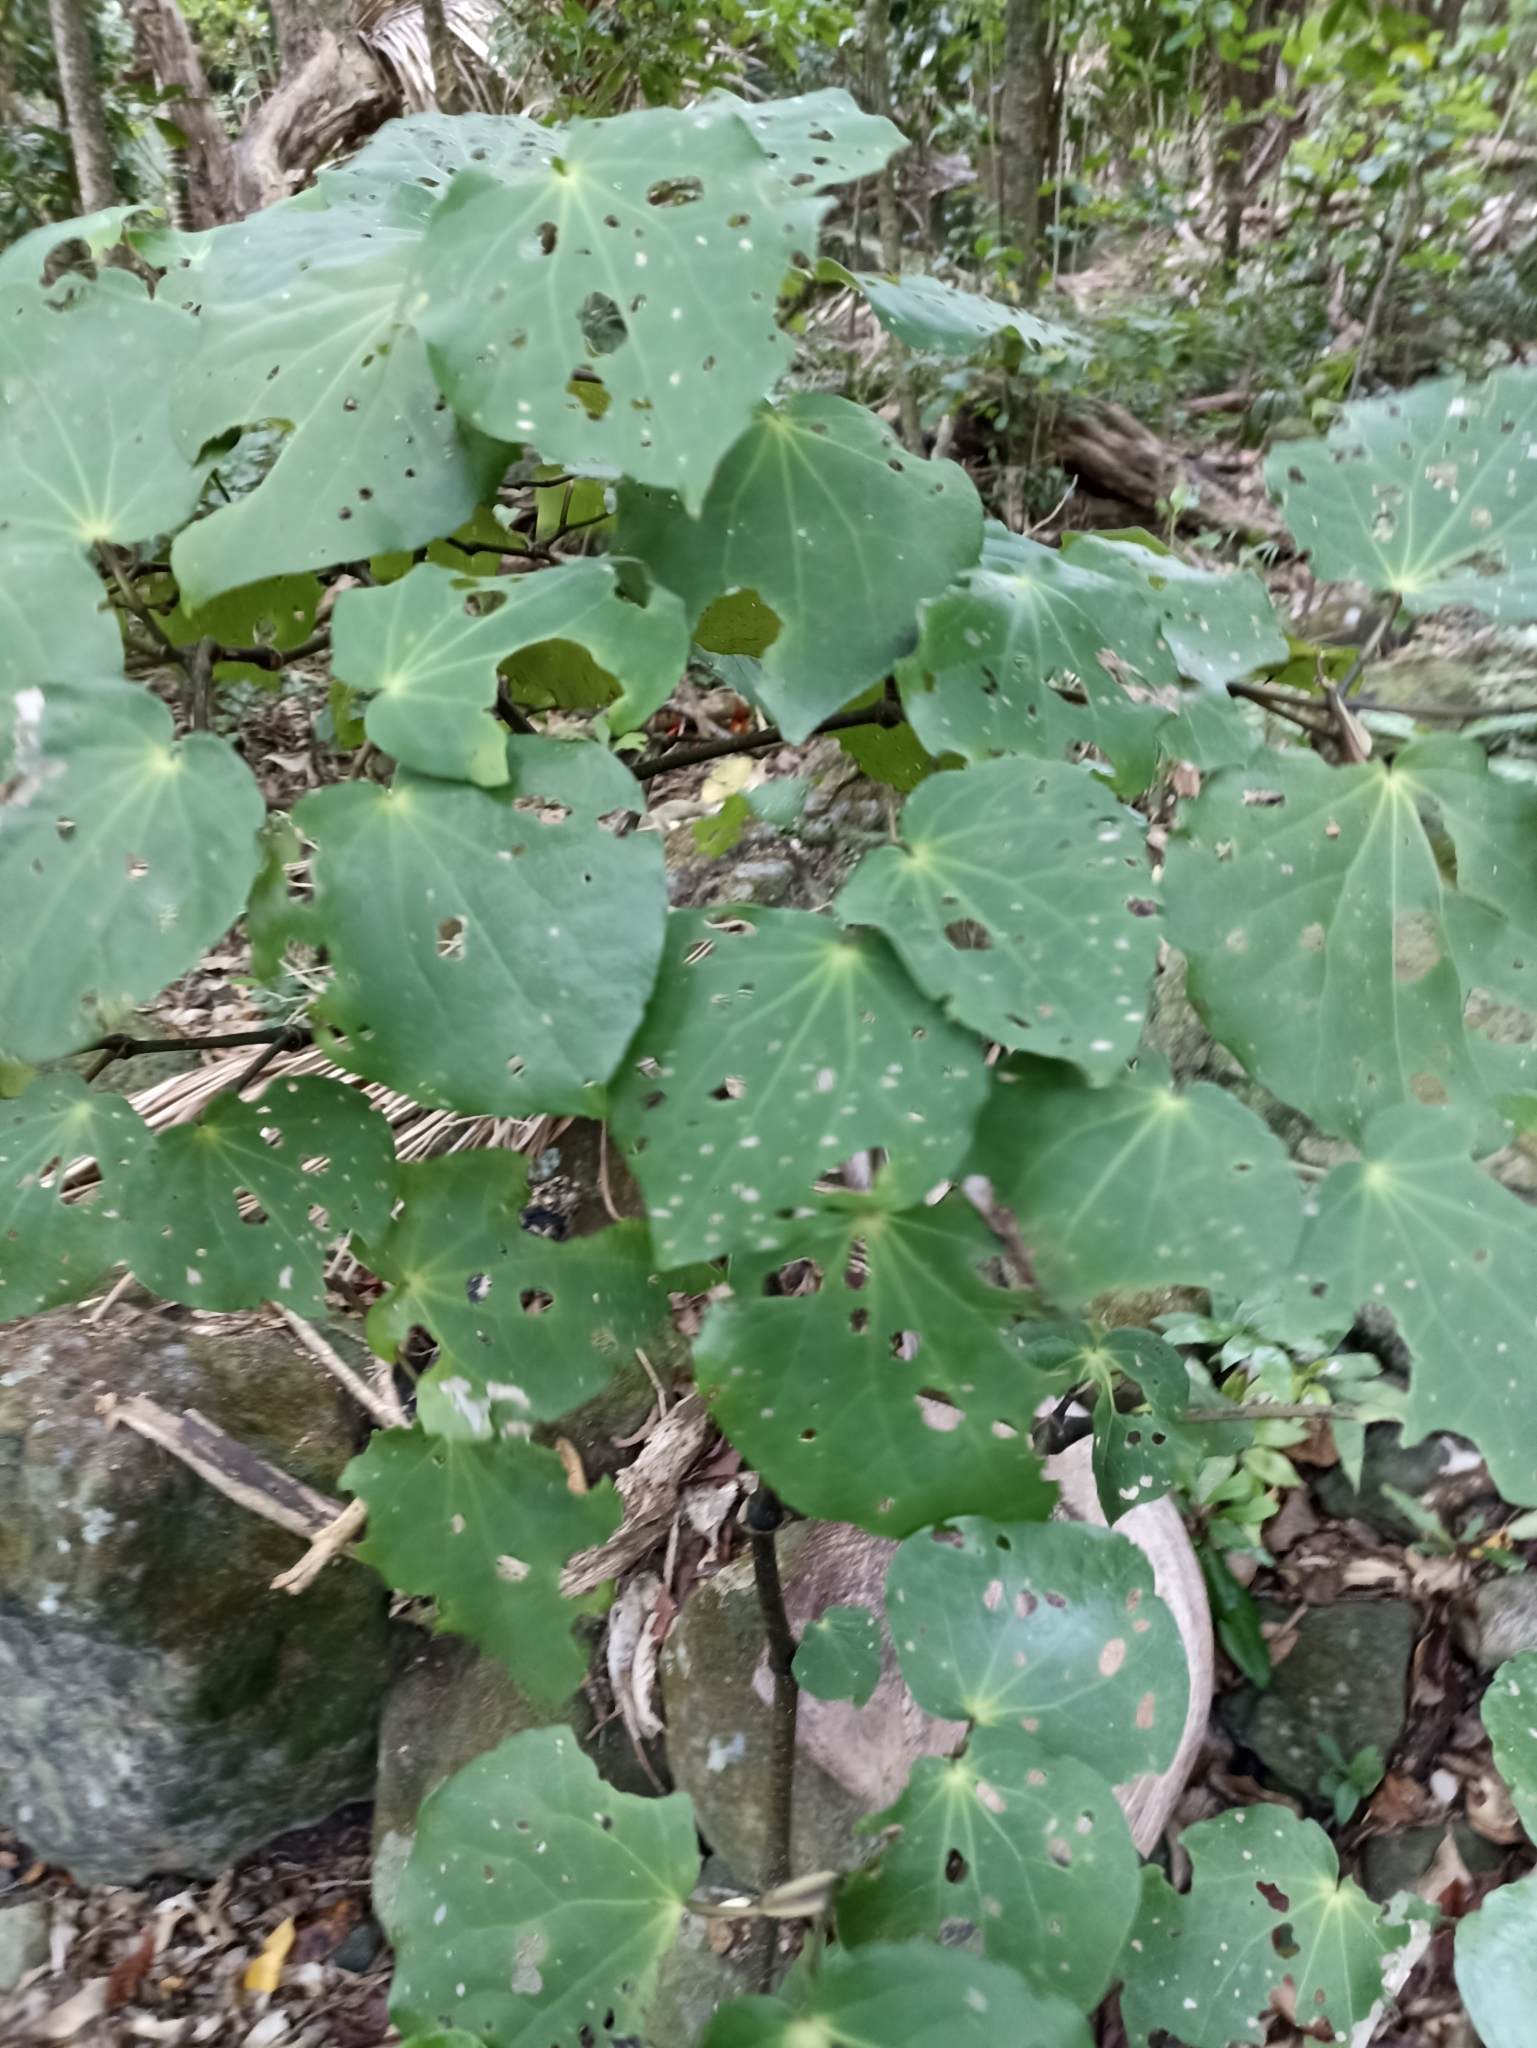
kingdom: Plantae
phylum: Tracheophyta
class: Magnoliopsida
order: Piperales
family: Piperaceae
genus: Macropiper
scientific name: Macropiper excelsum
